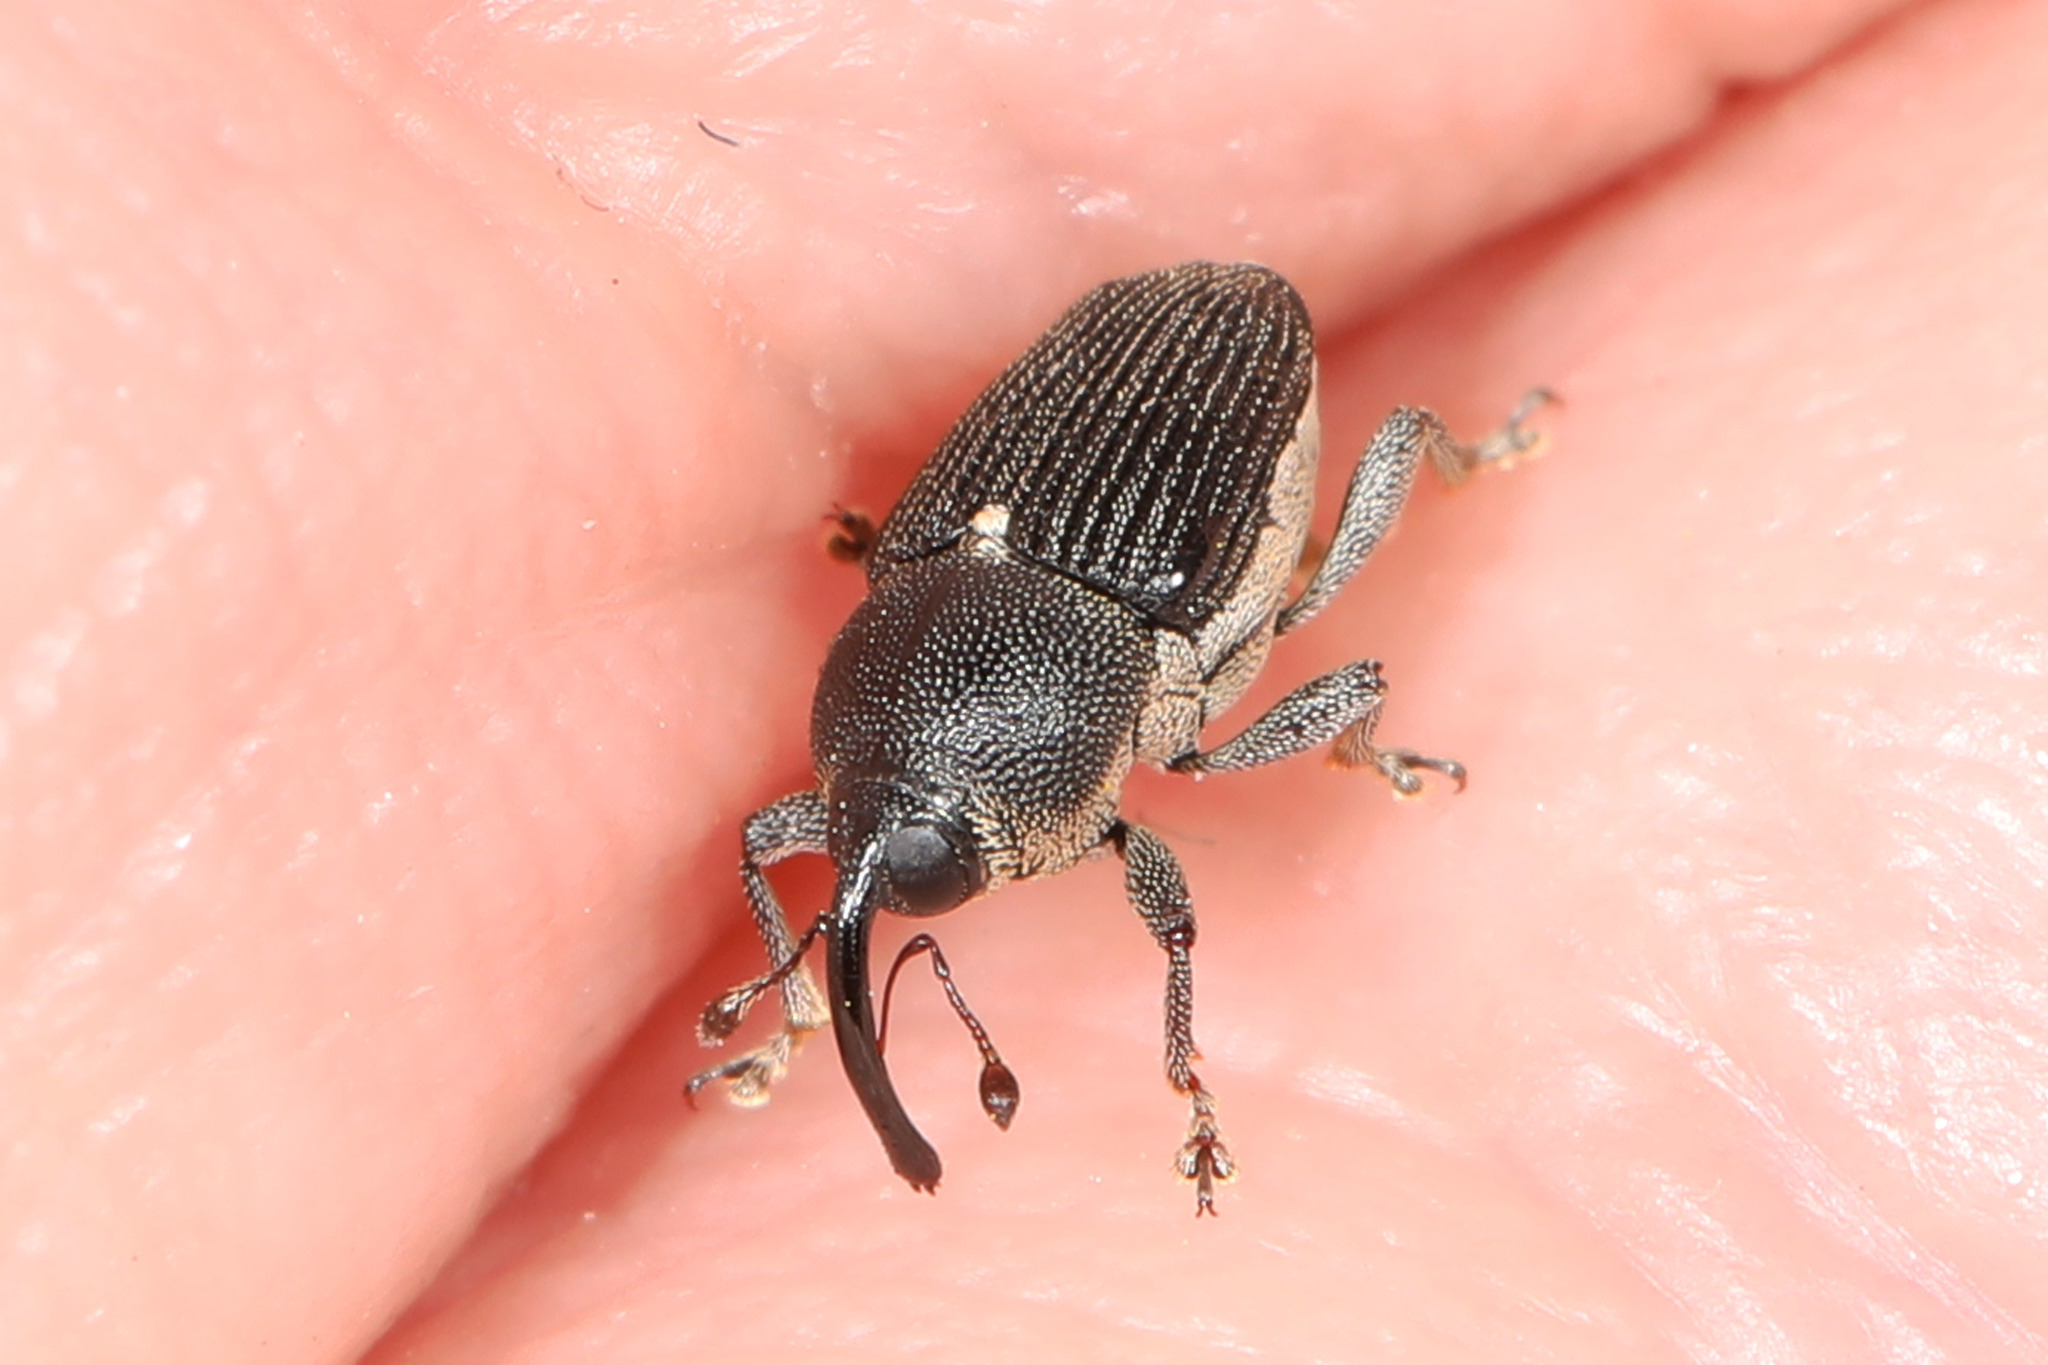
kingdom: Animalia
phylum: Arthropoda
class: Insecta
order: Coleoptera
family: Curculionidae
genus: Odontocorynus
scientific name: Odontocorynus salebrosus
